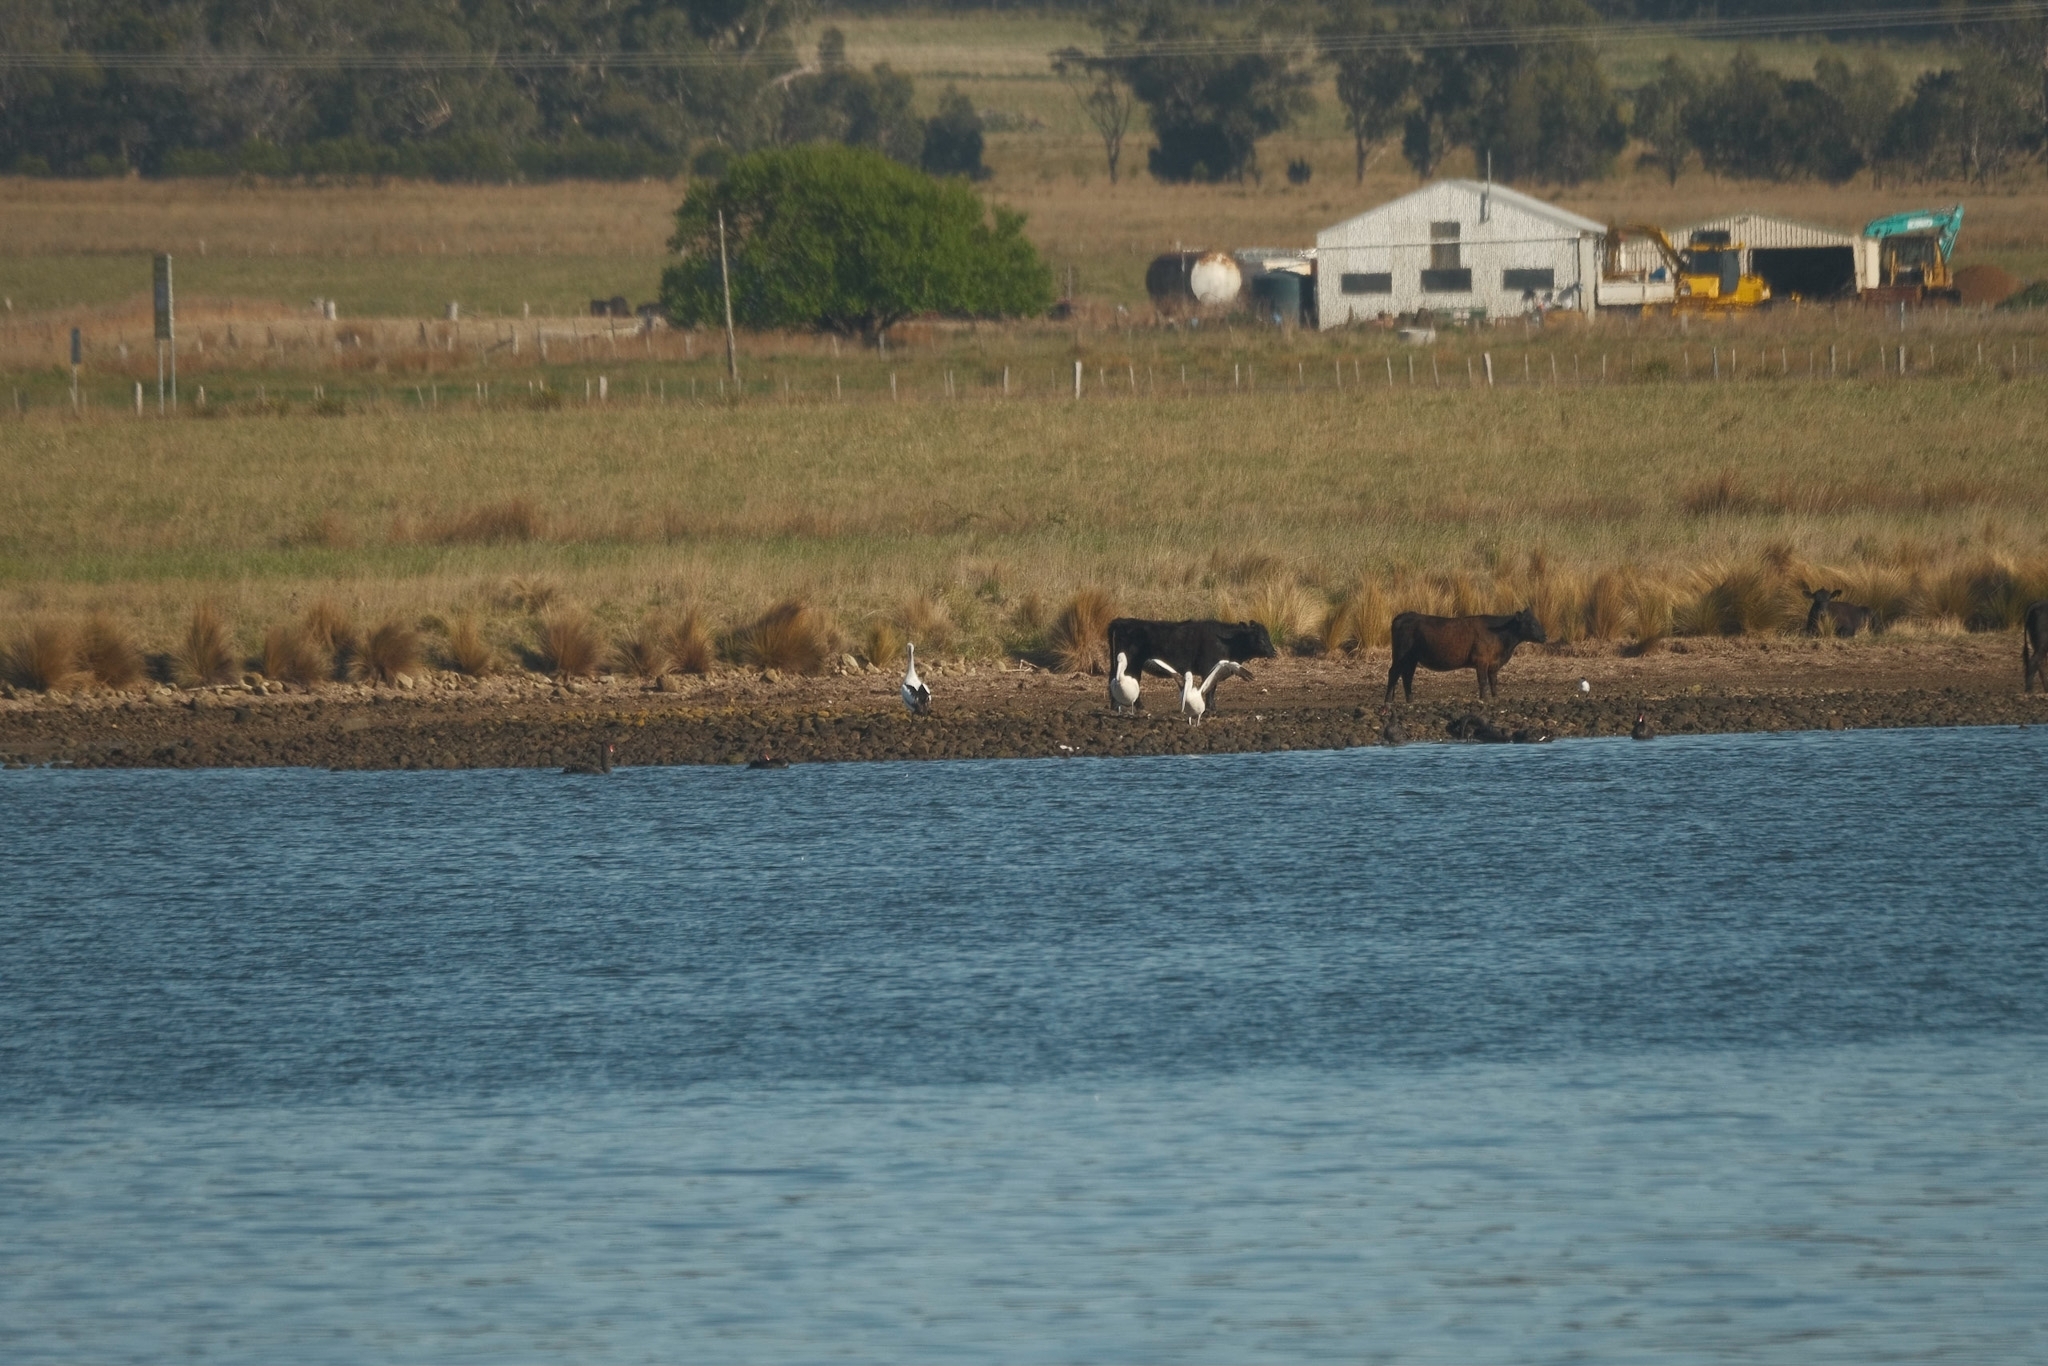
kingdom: Animalia
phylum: Chordata
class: Aves
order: Anseriformes
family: Anatidae
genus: Cygnus
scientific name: Cygnus atratus
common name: Black swan
